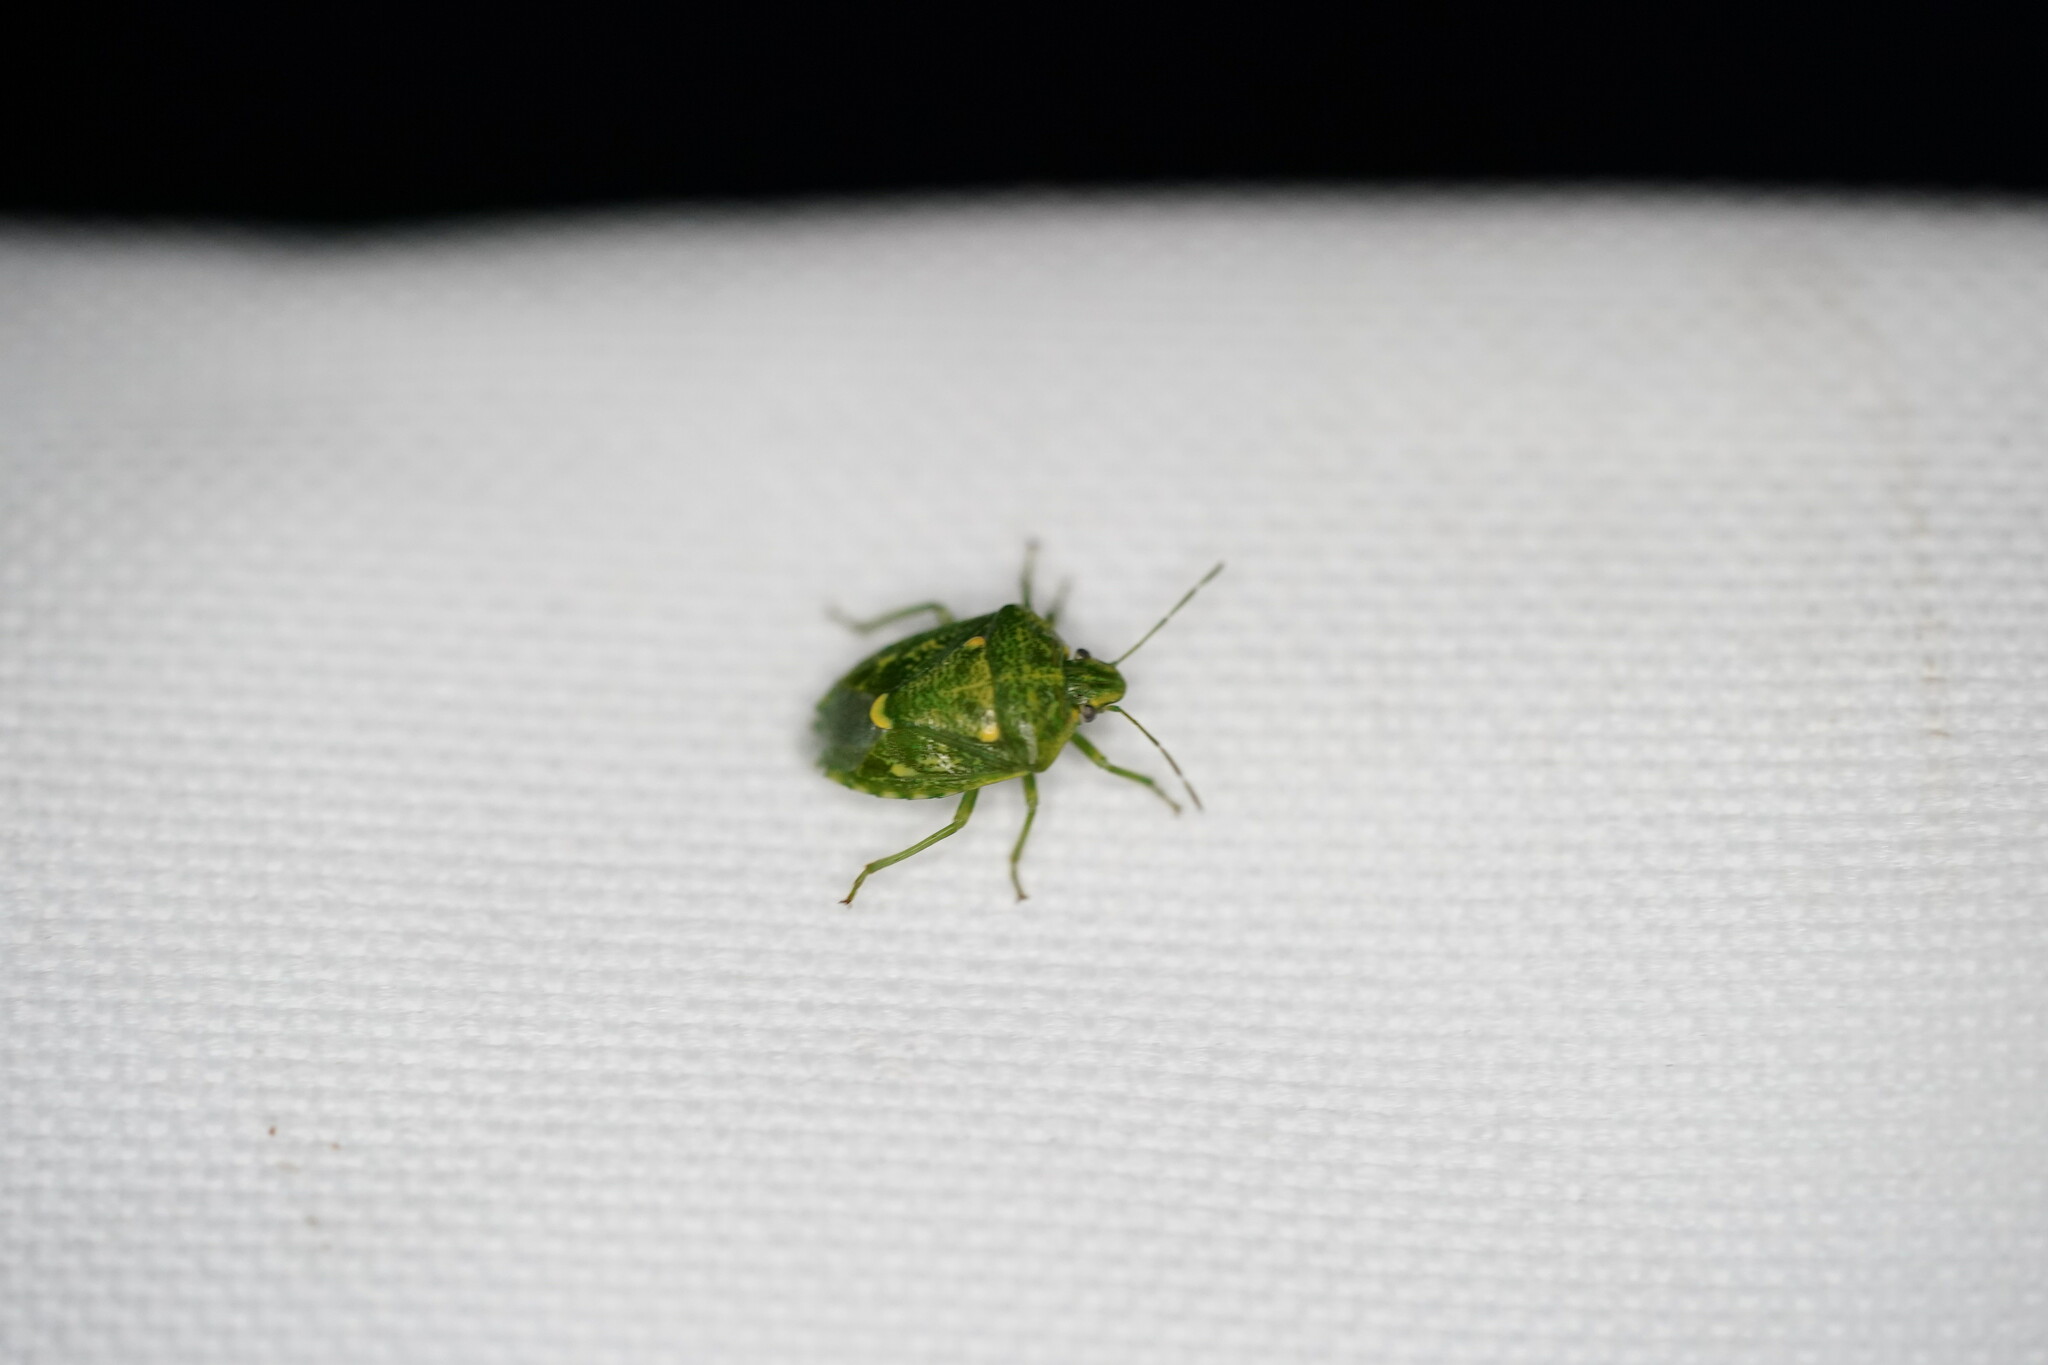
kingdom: Animalia
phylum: Arthropoda
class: Insecta
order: Hemiptera
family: Pentatomidae
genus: Banasa
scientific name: Banasa euchlora
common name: Cedar berry bug
